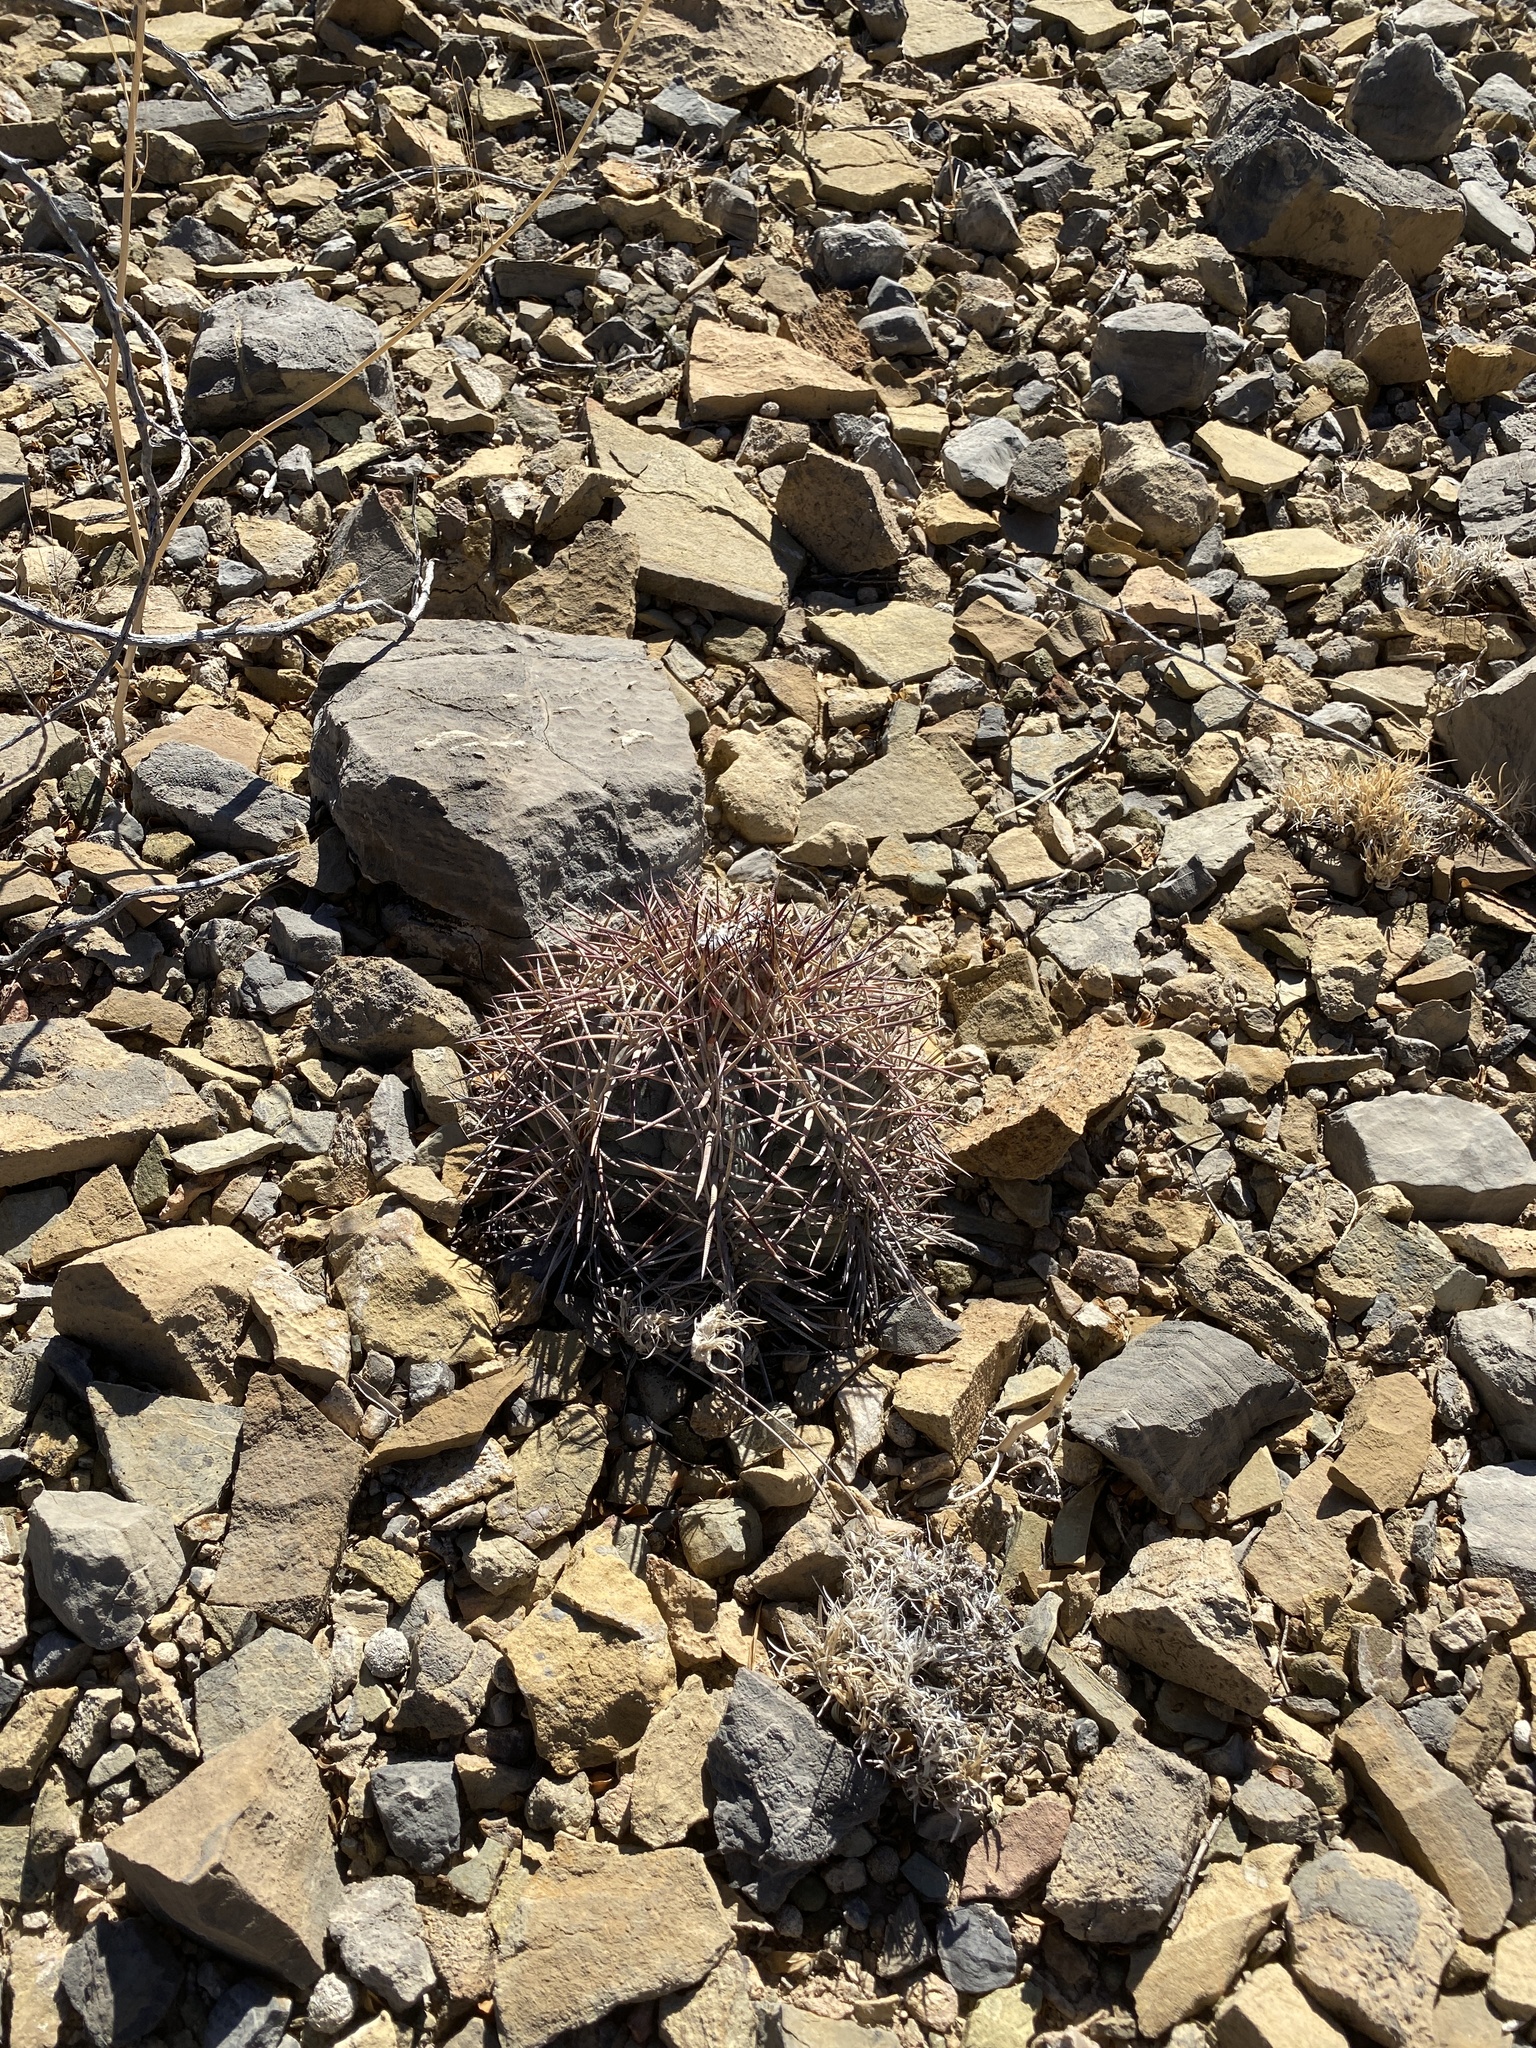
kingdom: Plantae
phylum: Tracheophyta
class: Magnoliopsida
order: Caryophyllales
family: Cactaceae
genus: Echinocactus
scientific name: Echinocactus horizonthalonius
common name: Devilshead
